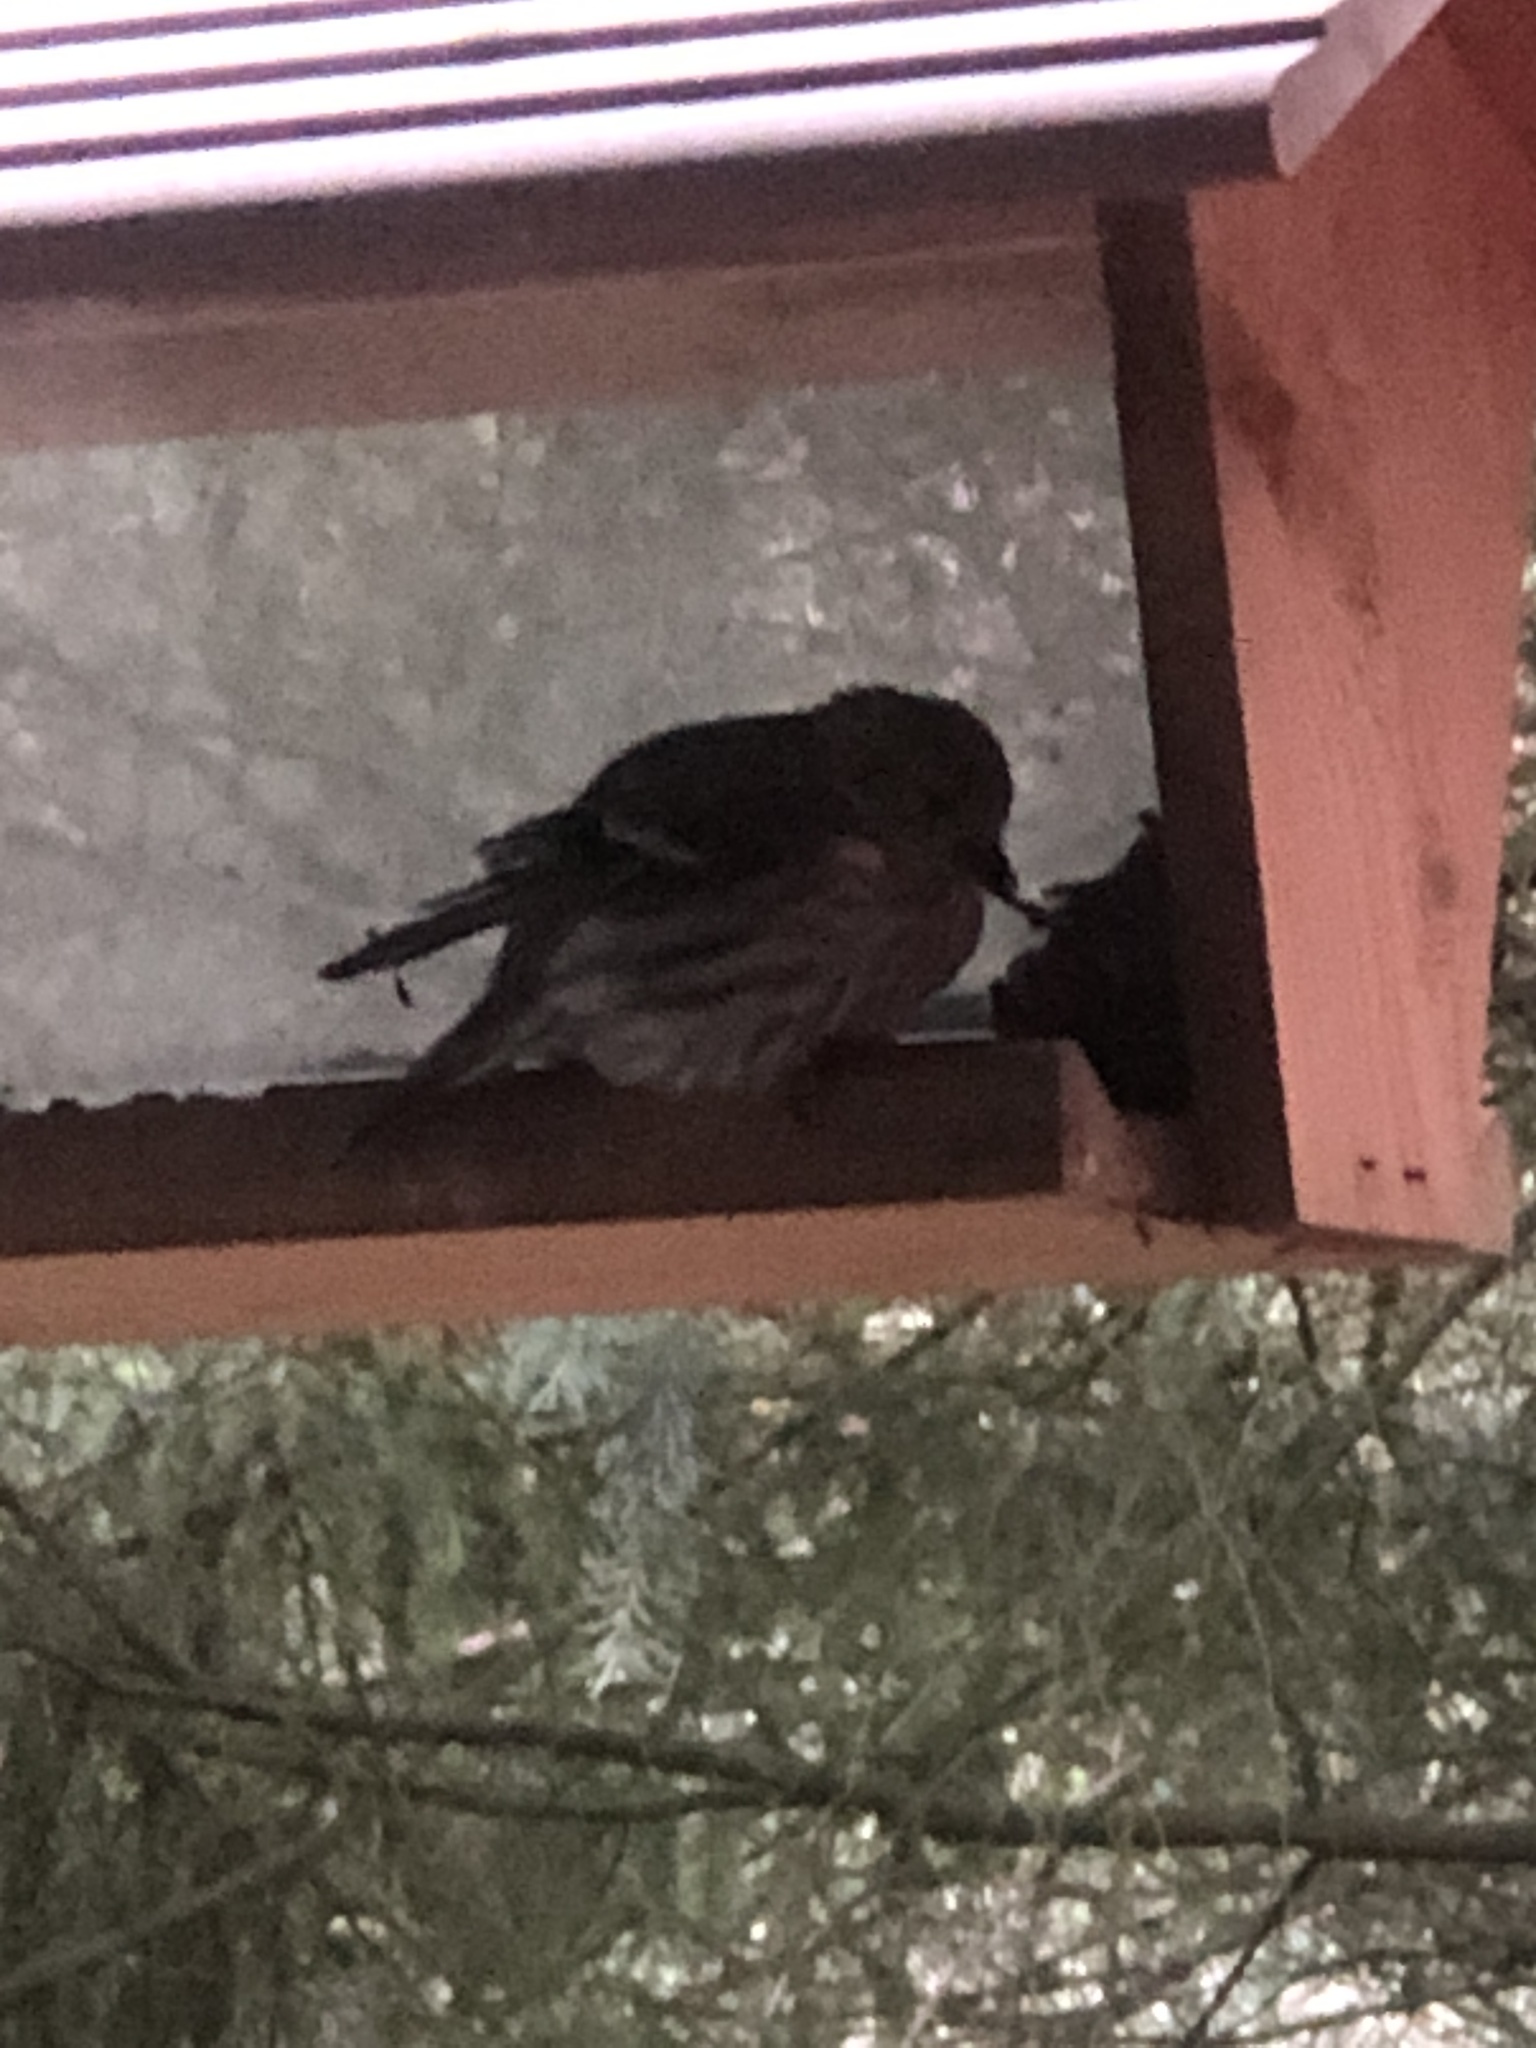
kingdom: Animalia
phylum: Chordata
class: Aves
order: Passeriformes
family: Fringillidae
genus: Spinus
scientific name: Spinus pinus
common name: Pine siskin
